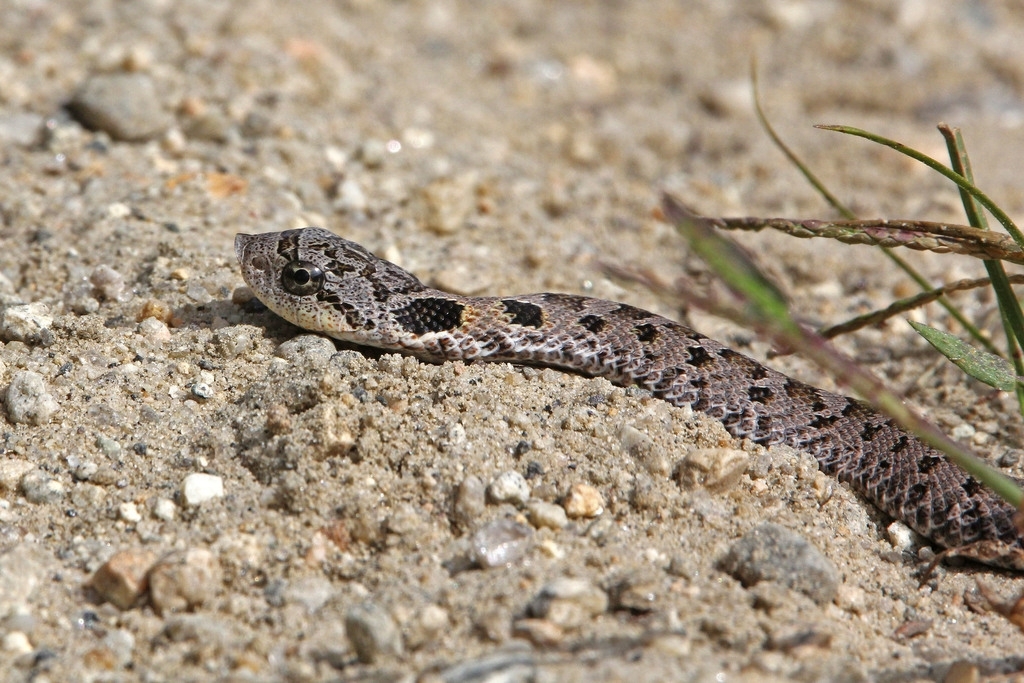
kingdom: Animalia
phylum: Chordata
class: Squamata
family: Colubridae
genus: Heterodon
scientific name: Heterodon platirhinos
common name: Eastern hognose snake
